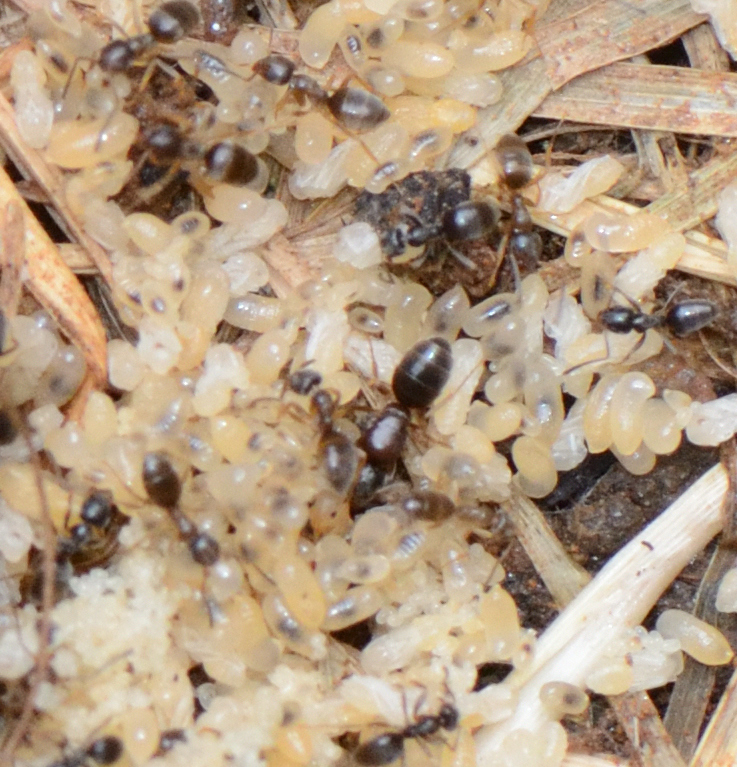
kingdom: Animalia
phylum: Arthropoda
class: Insecta
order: Hymenoptera
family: Formicidae
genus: Tapinoma
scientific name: Tapinoma sessile
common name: Odorous house ant
